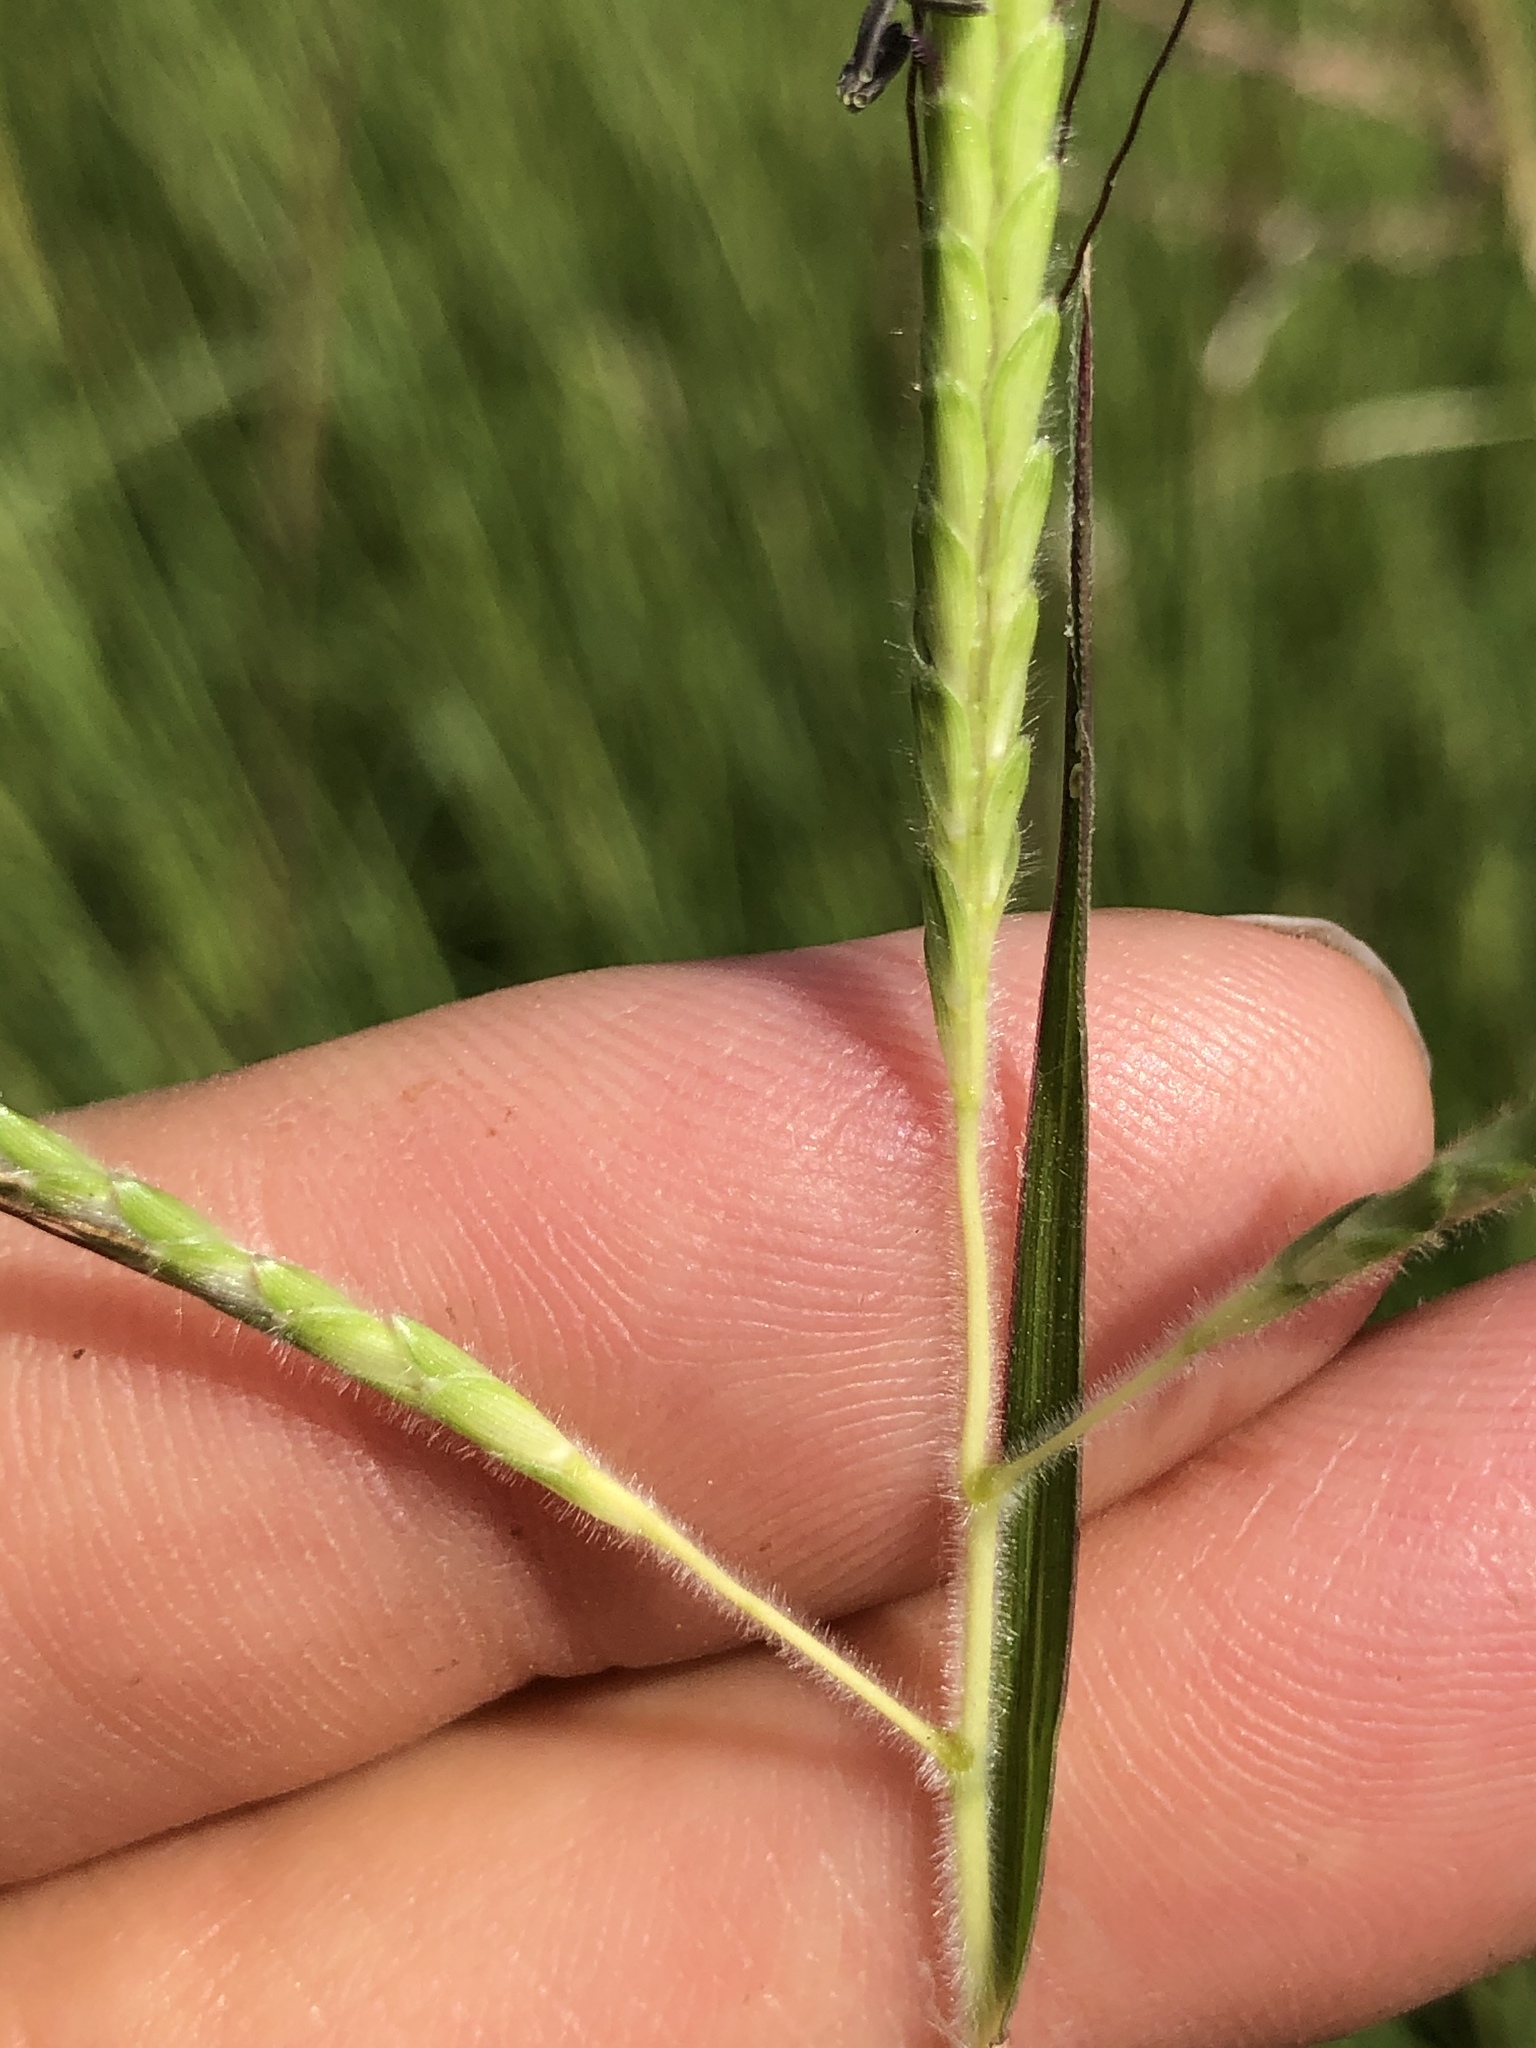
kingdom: Plantae
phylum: Tracheophyta
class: Liliopsida
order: Poales
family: Poaceae
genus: Dichanthium
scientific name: Dichanthium aristatum
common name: Angleton bluestem
